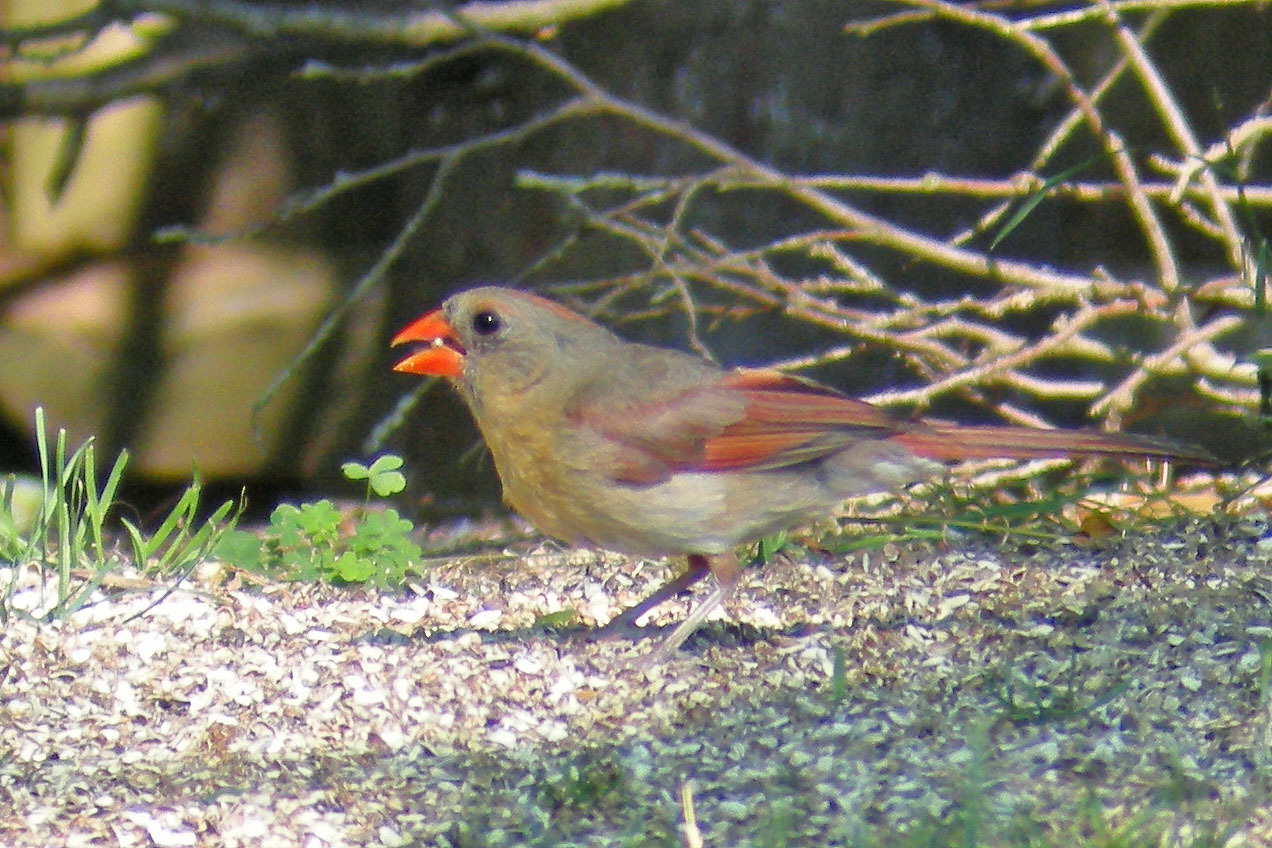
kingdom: Animalia
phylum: Chordata
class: Aves
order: Passeriformes
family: Cardinalidae
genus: Cardinalis
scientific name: Cardinalis cardinalis
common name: Northern cardinal
